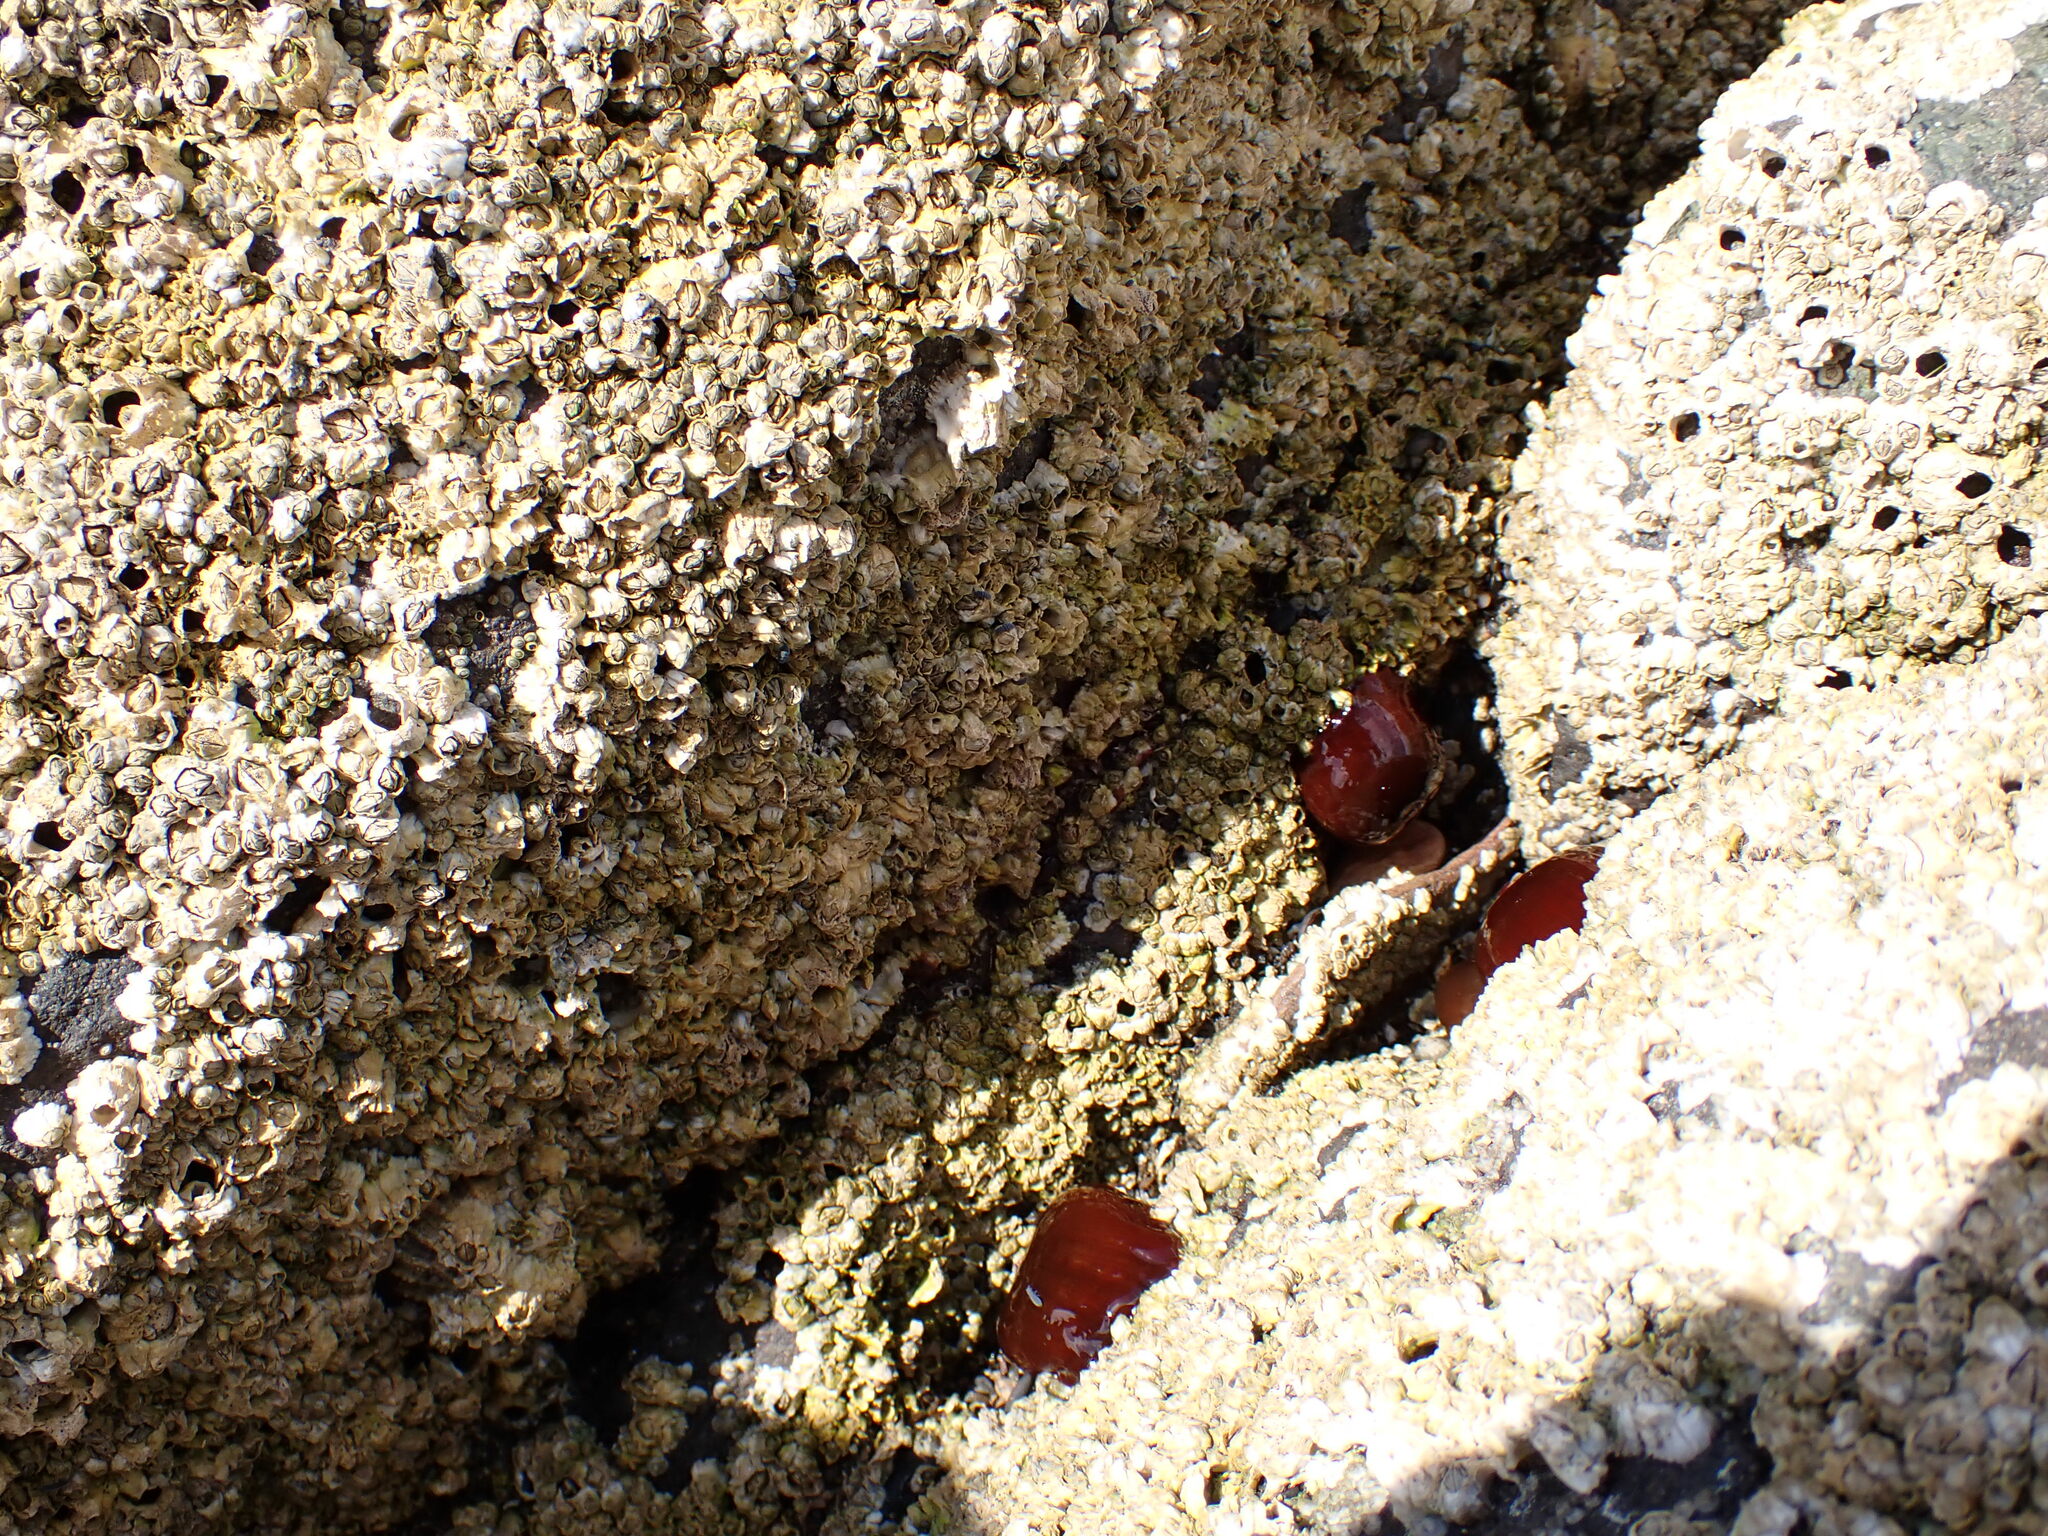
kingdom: Animalia
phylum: Cnidaria
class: Anthozoa
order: Actiniaria
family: Actiniidae
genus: Actinia
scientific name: Actinia equina
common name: Beadlet anemone
